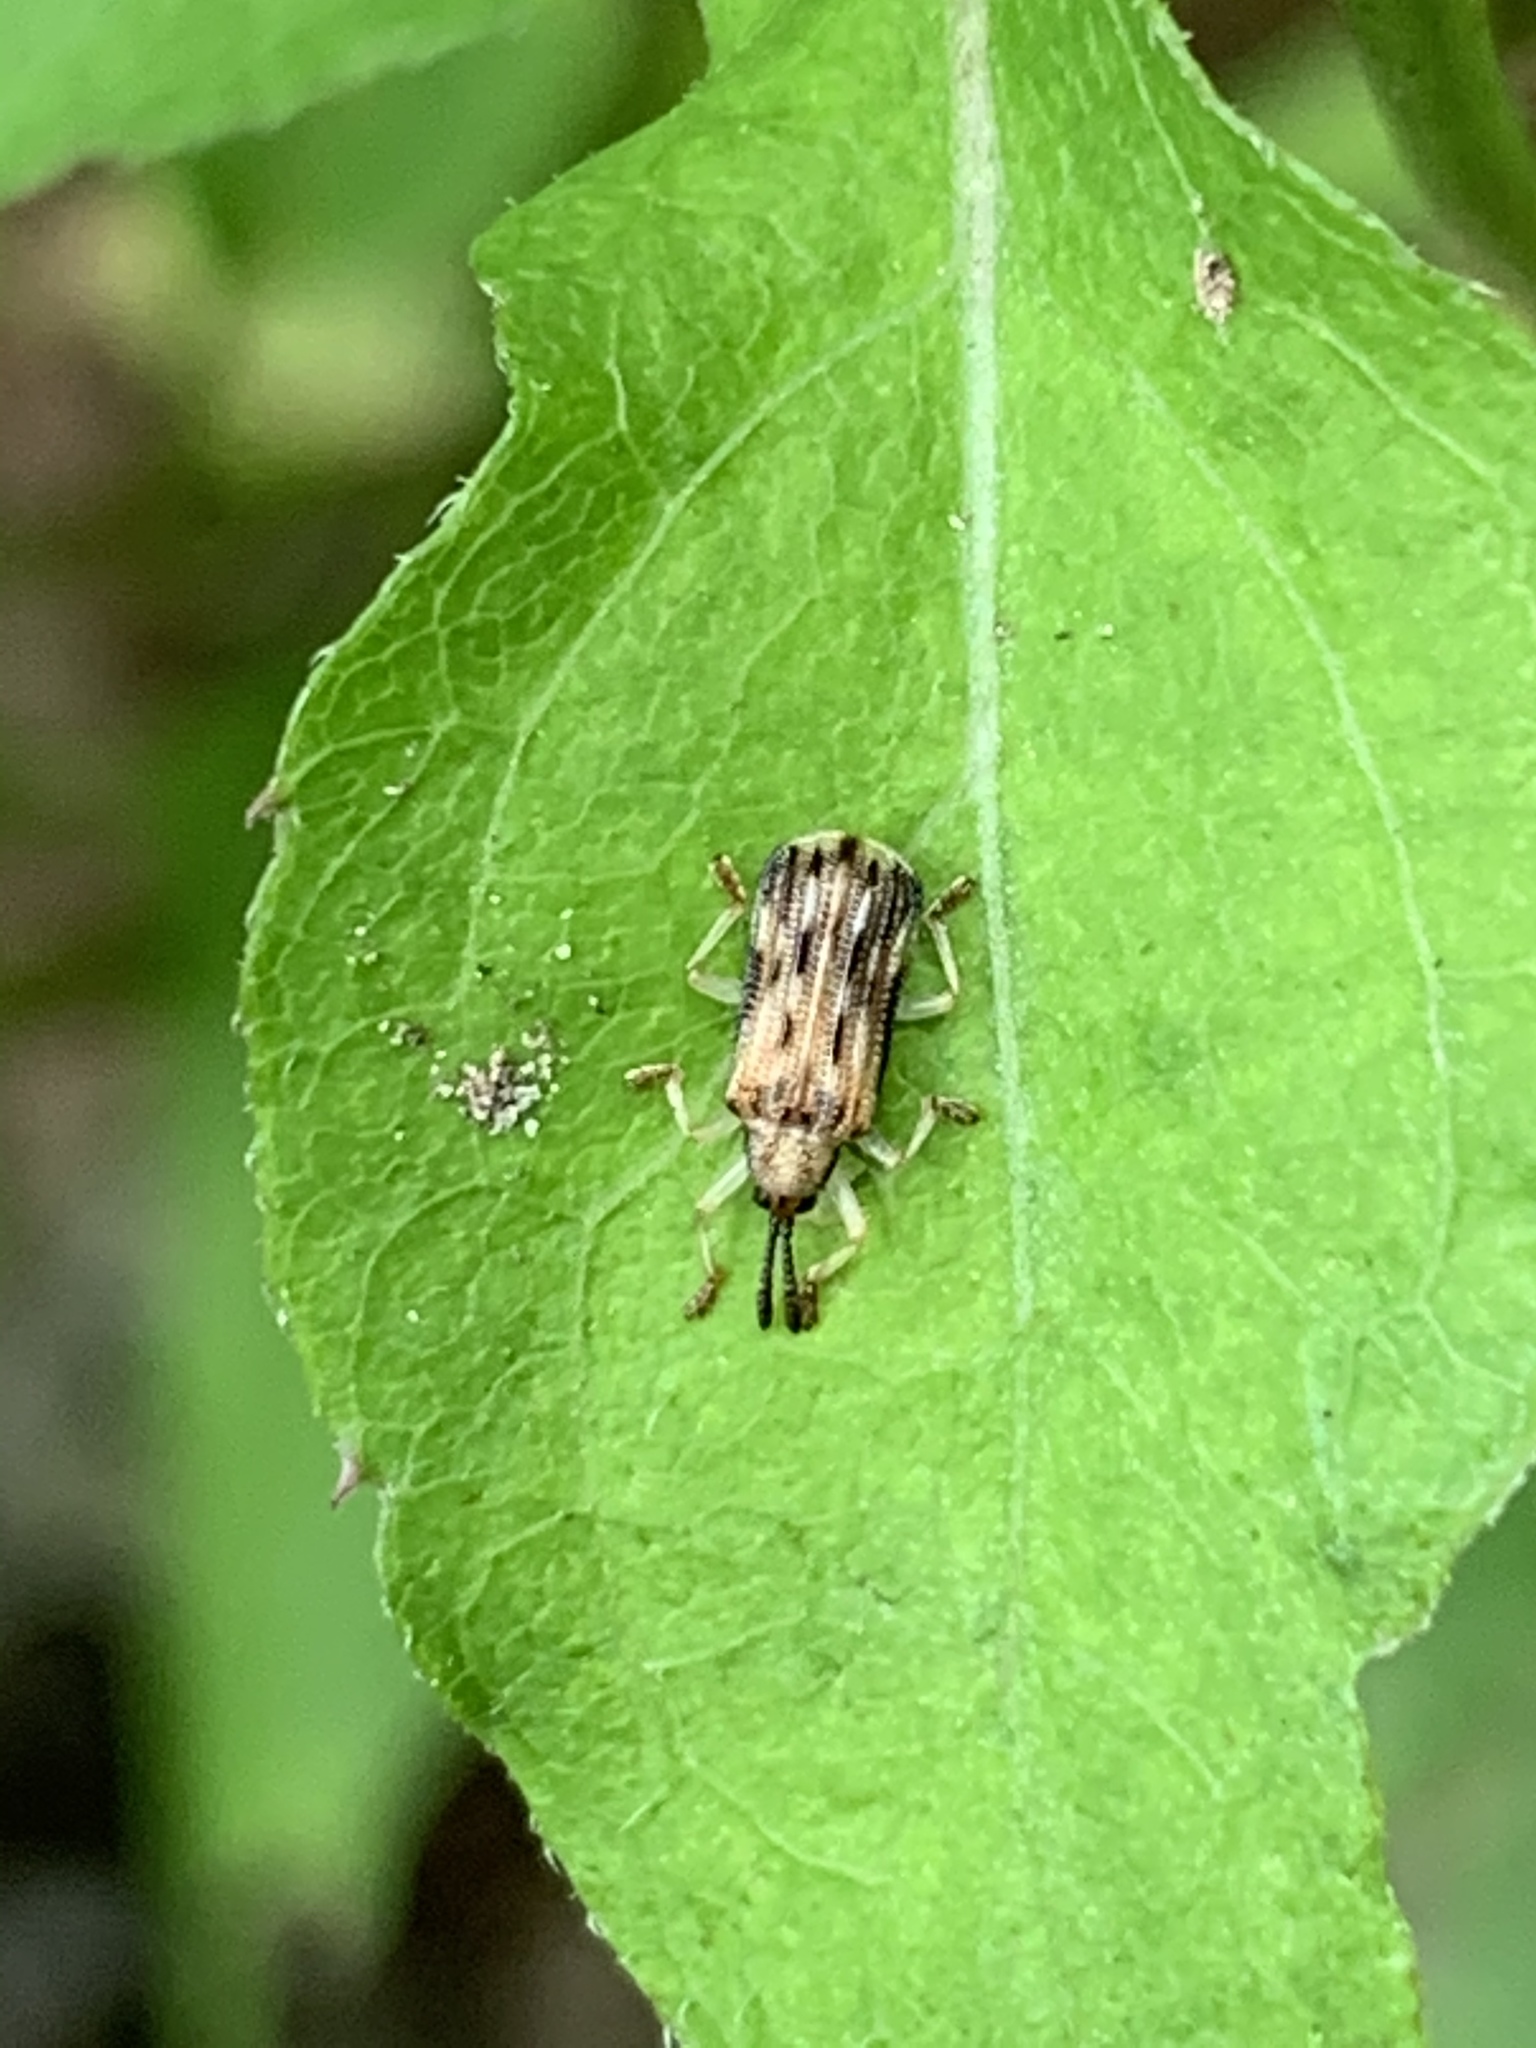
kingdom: Animalia
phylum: Arthropoda
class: Insecta
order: Coleoptera
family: Chrysomelidae
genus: Sumitrosis
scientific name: Sumitrosis inaequalis
